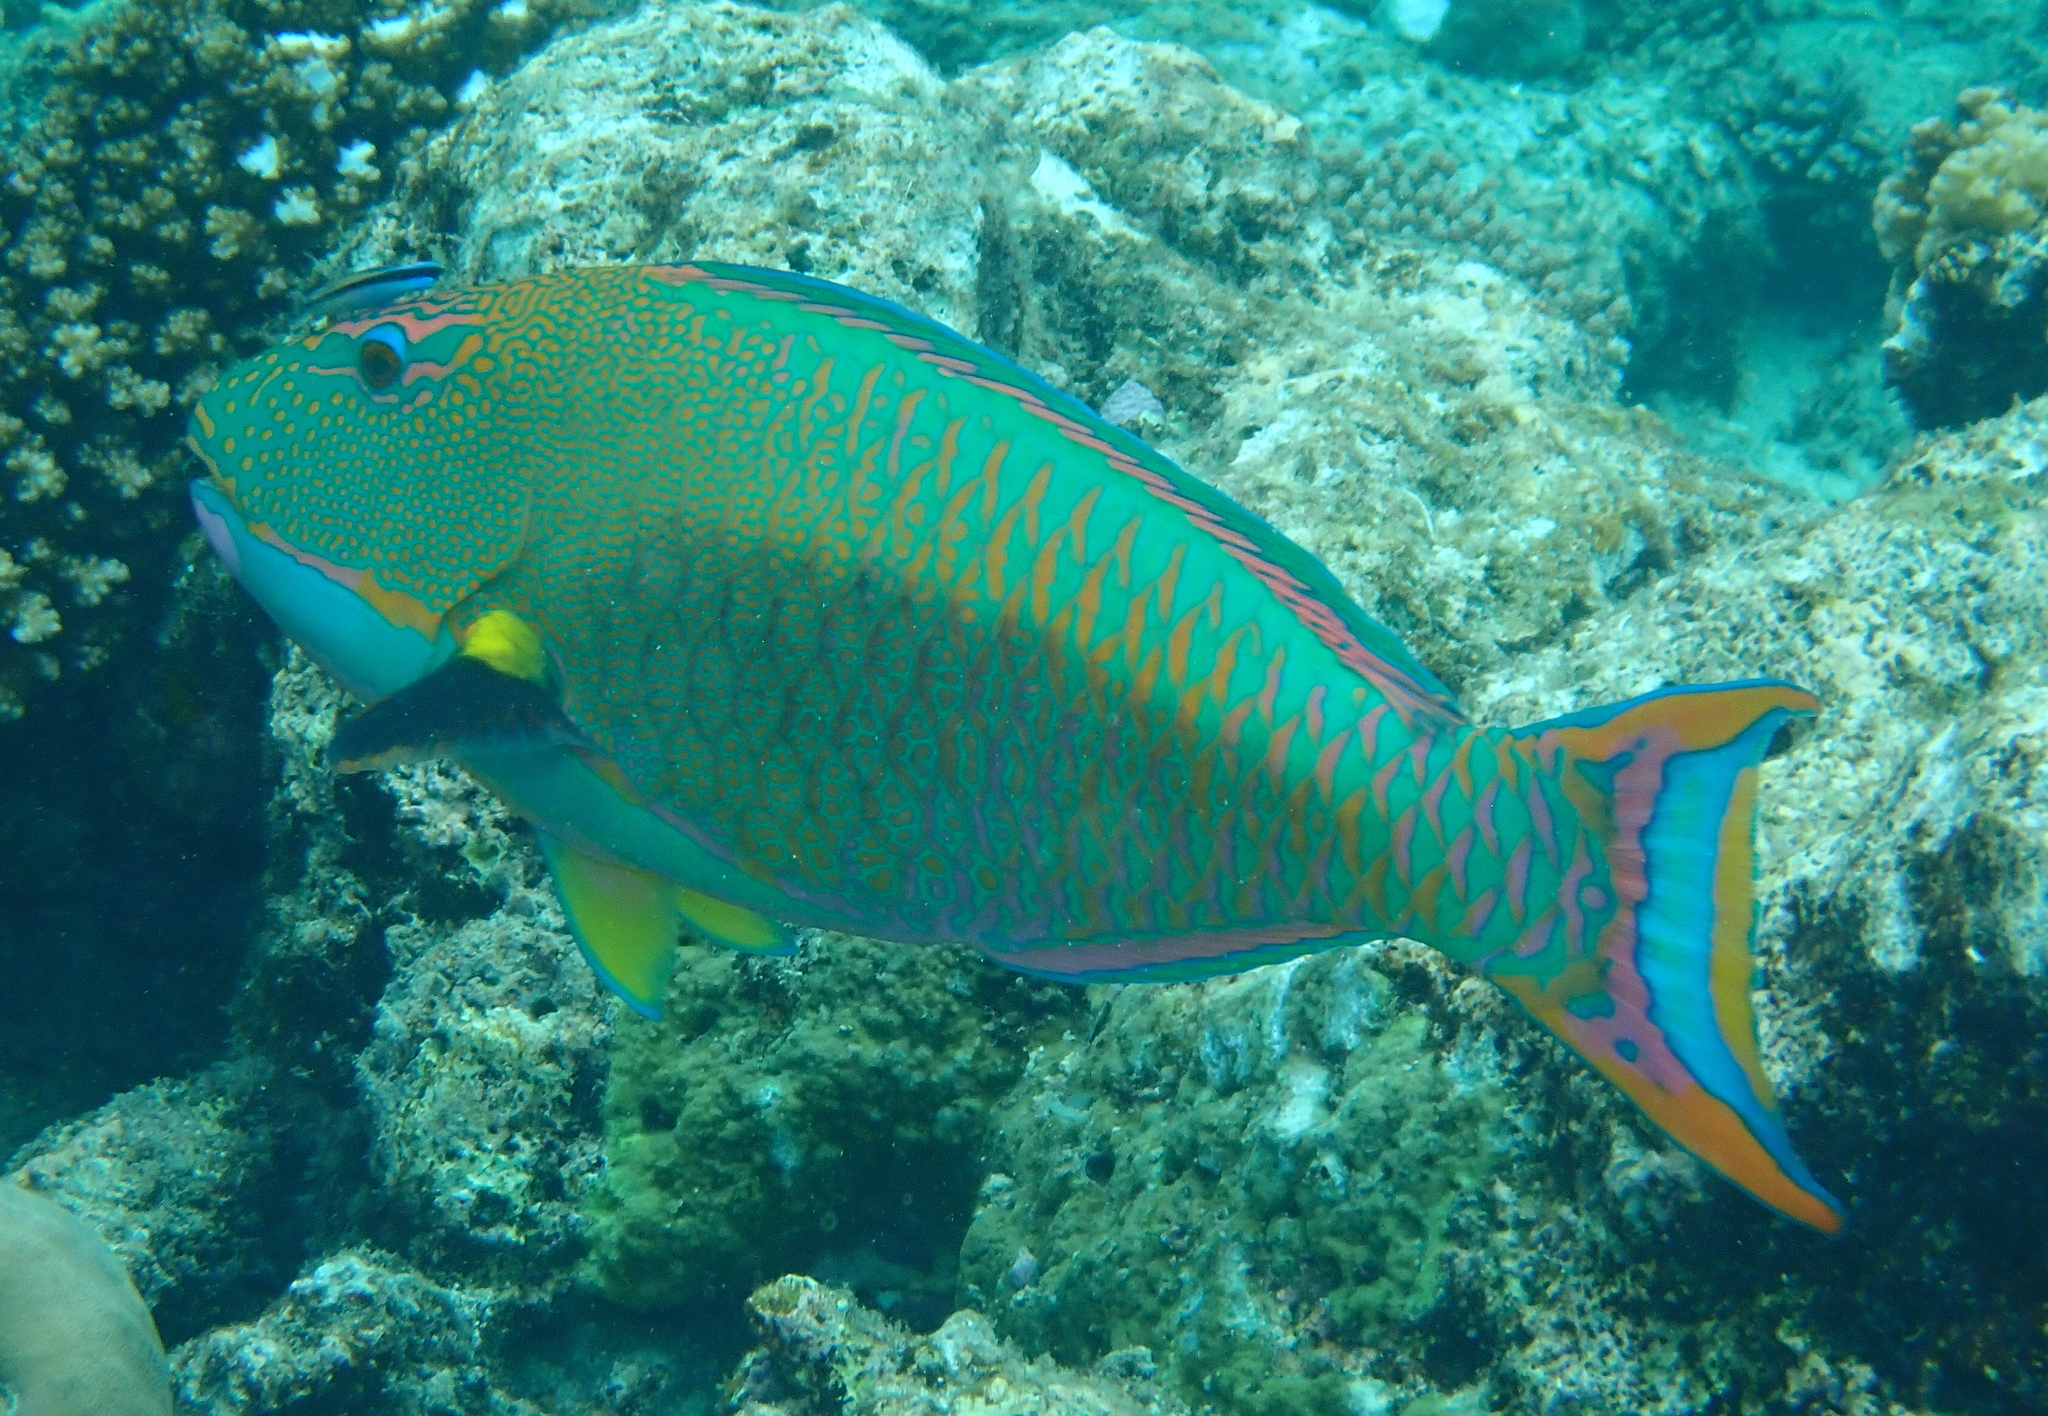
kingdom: Animalia
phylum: Chordata
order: Perciformes
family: Scaridae
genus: Cetoscarus
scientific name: Cetoscarus ocellatus
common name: Bicolor parrotfish
